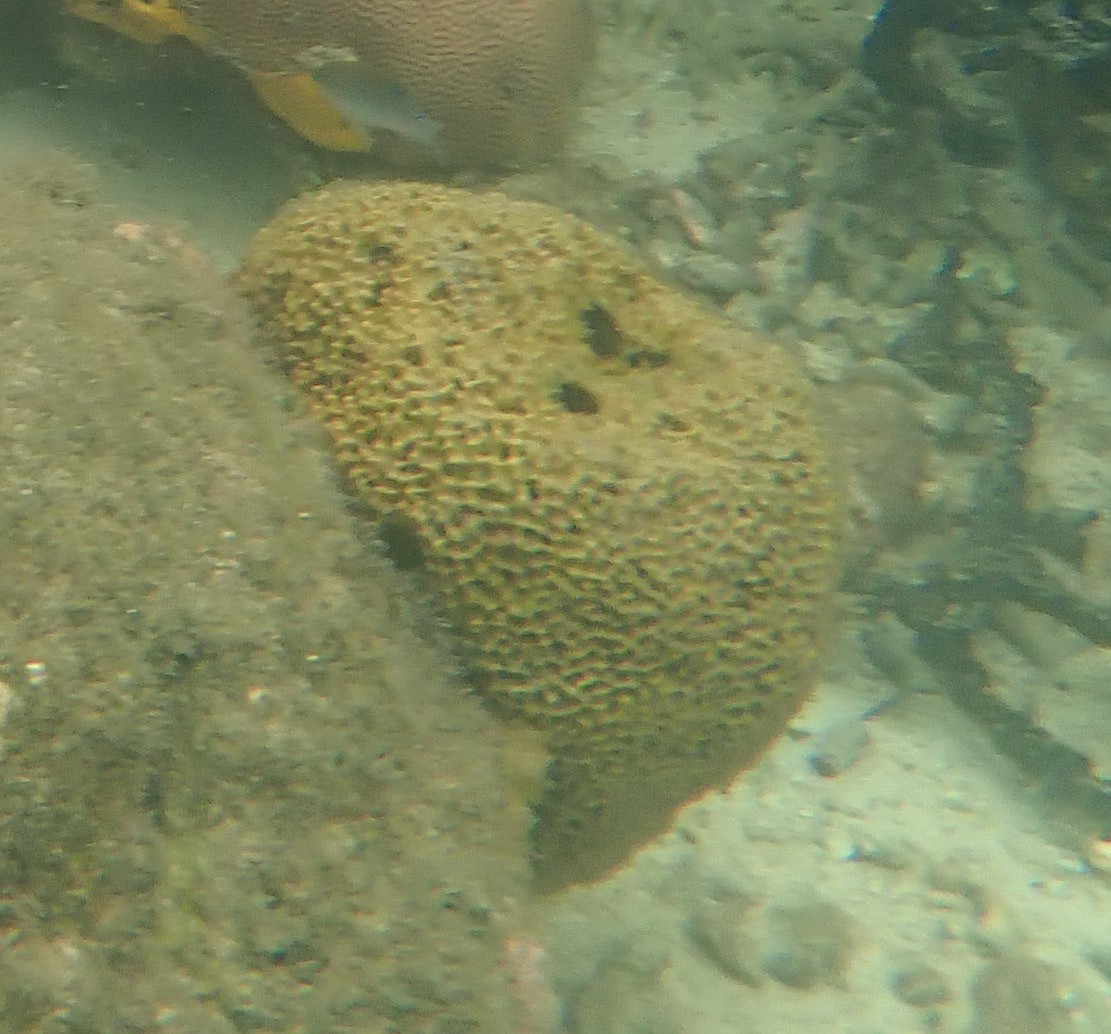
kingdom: Animalia
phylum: Porifera
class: Demospongiae
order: Dictyoceratida
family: Irciniidae
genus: Ircinia
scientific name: Ircinia felix
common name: Stinker sponge
